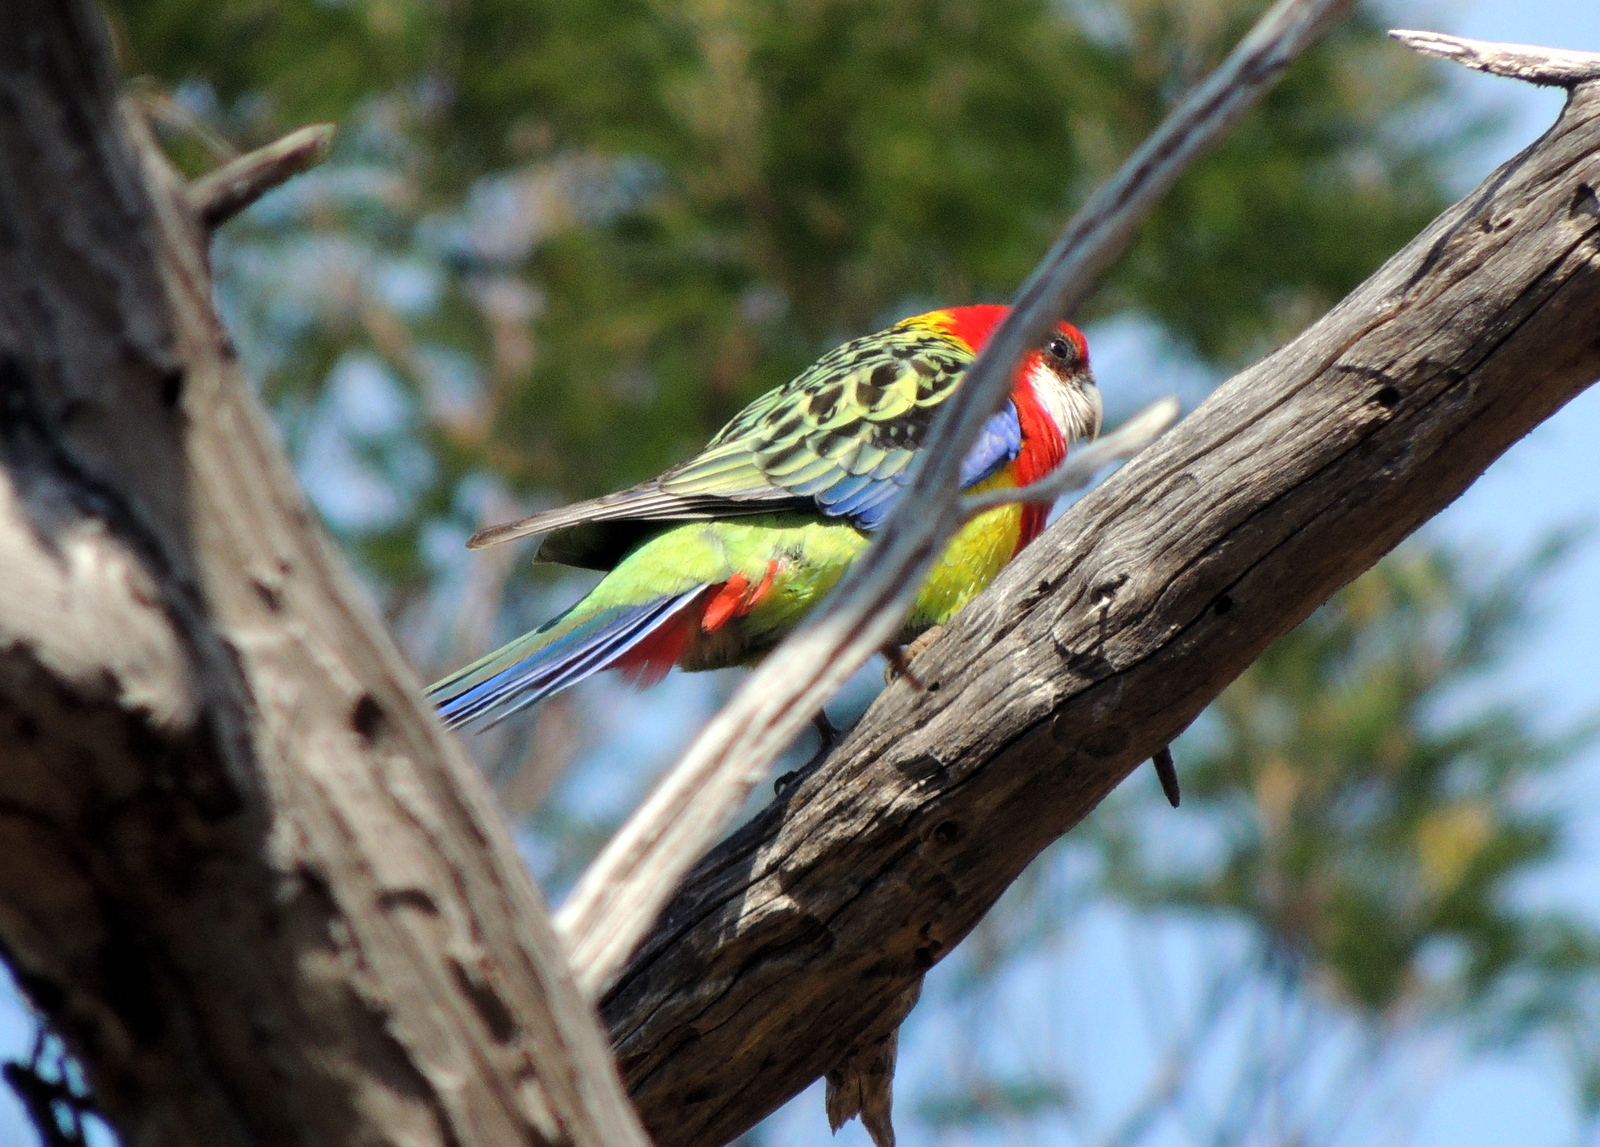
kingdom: Animalia
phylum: Chordata
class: Aves
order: Psittaciformes
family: Psittacidae
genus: Platycercus
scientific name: Platycercus eximius
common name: Eastern rosella
